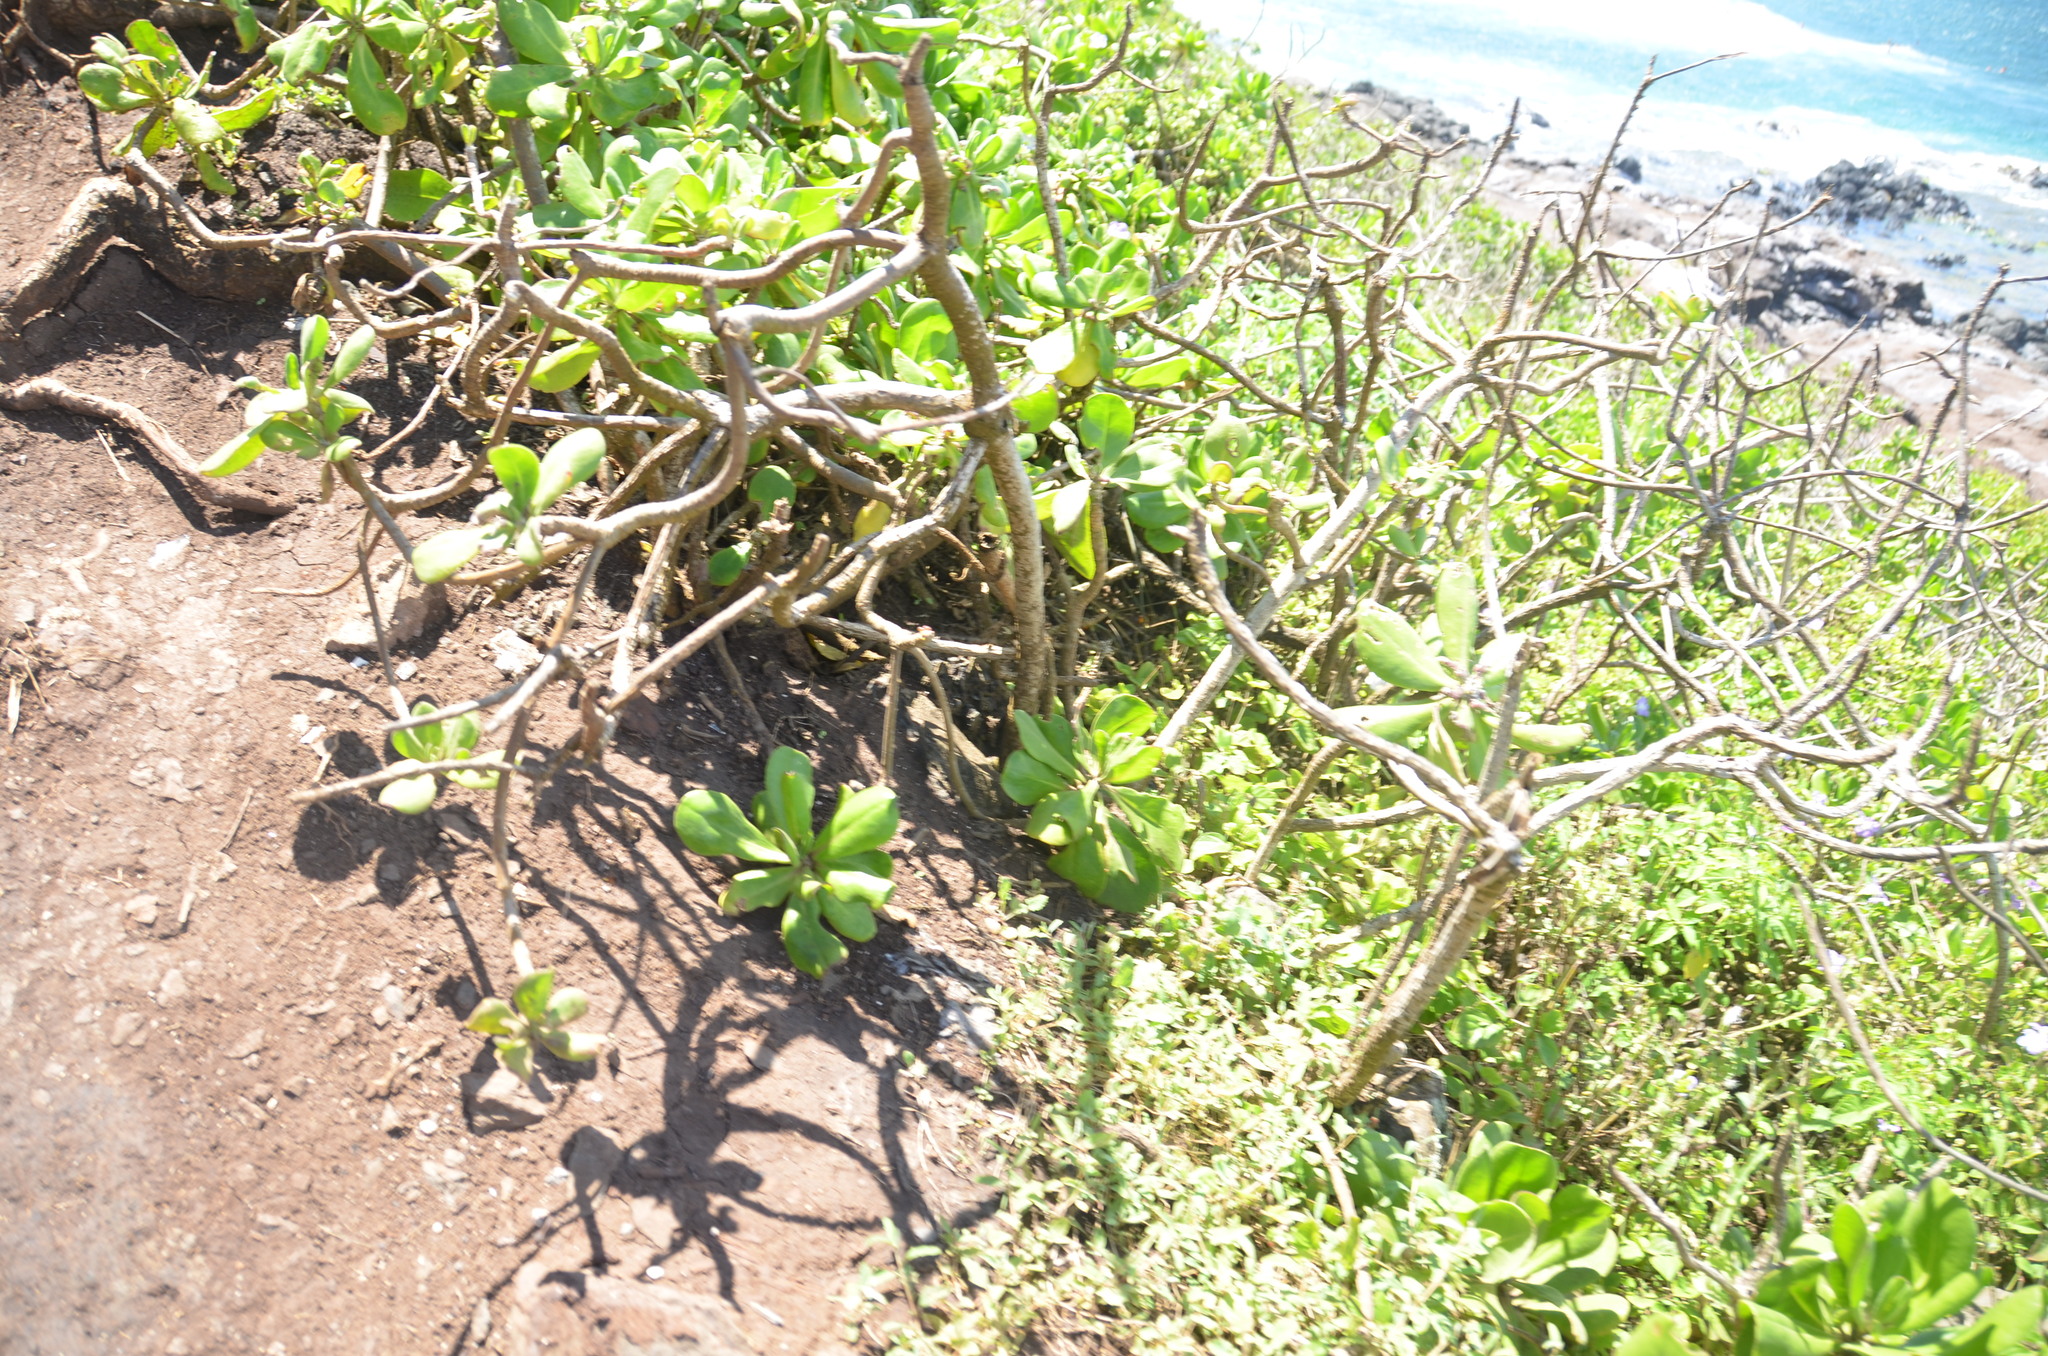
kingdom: Plantae
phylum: Tracheophyta
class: Magnoliopsida
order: Asterales
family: Goodeniaceae
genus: Scaevola
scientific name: Scaevola taccada
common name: Sea lettucetree
